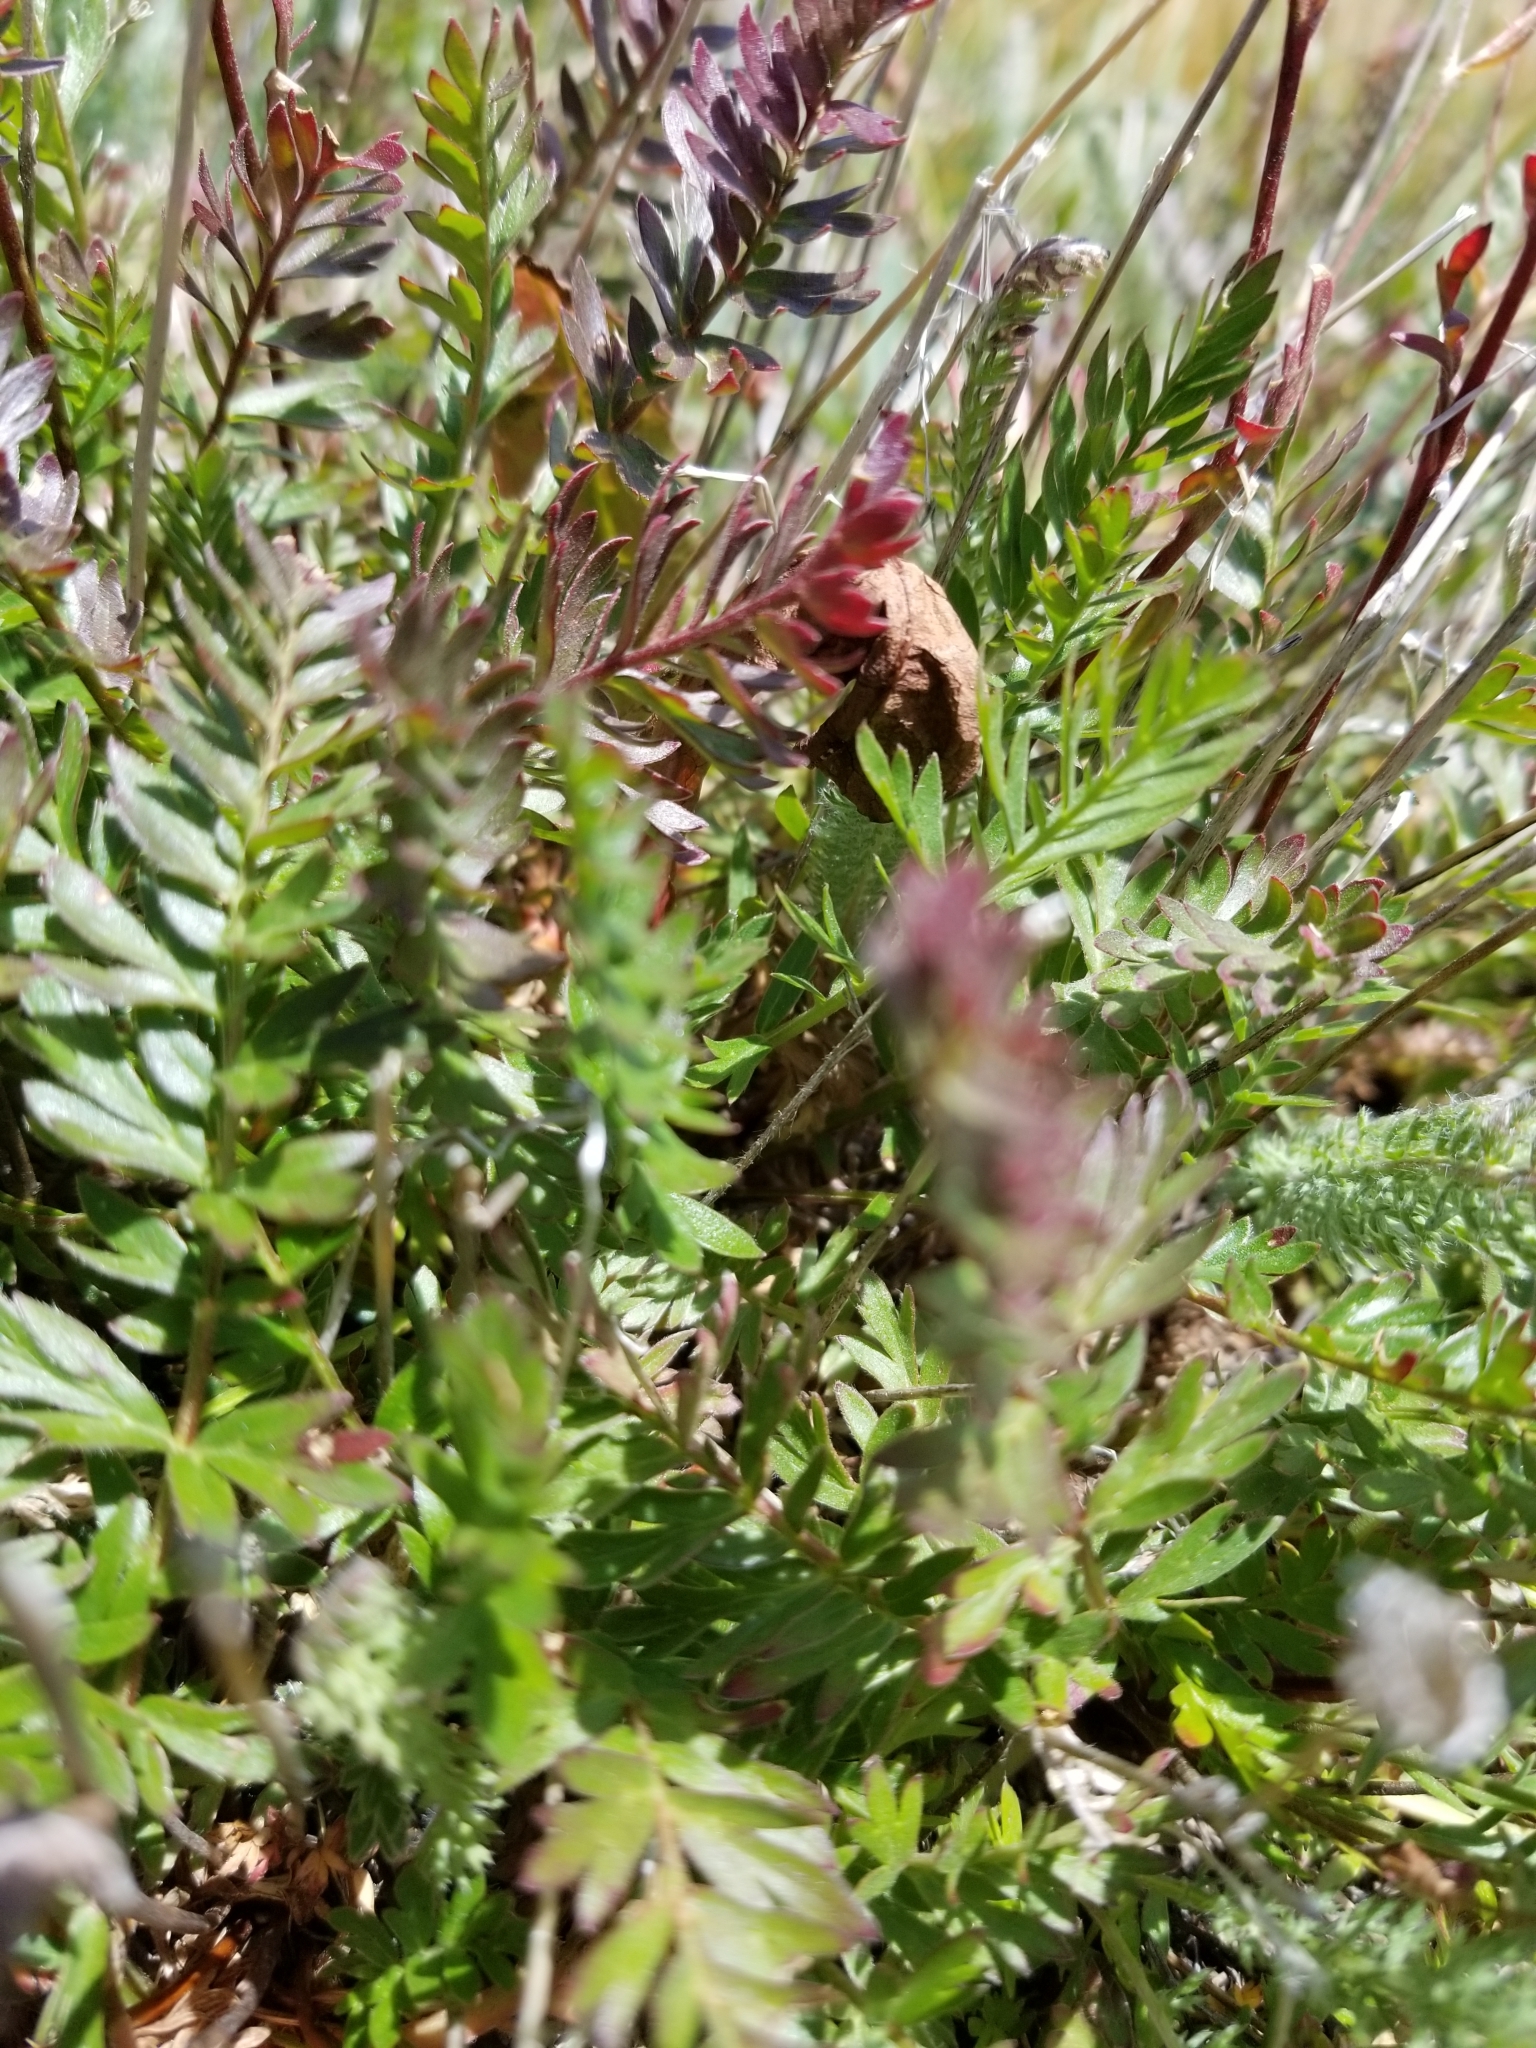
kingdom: Plantae
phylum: Tracheophyta
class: Magnoliopsida
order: Rosales
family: Rosaceae
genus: Geum
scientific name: Geum rossii
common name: Alpine avens
